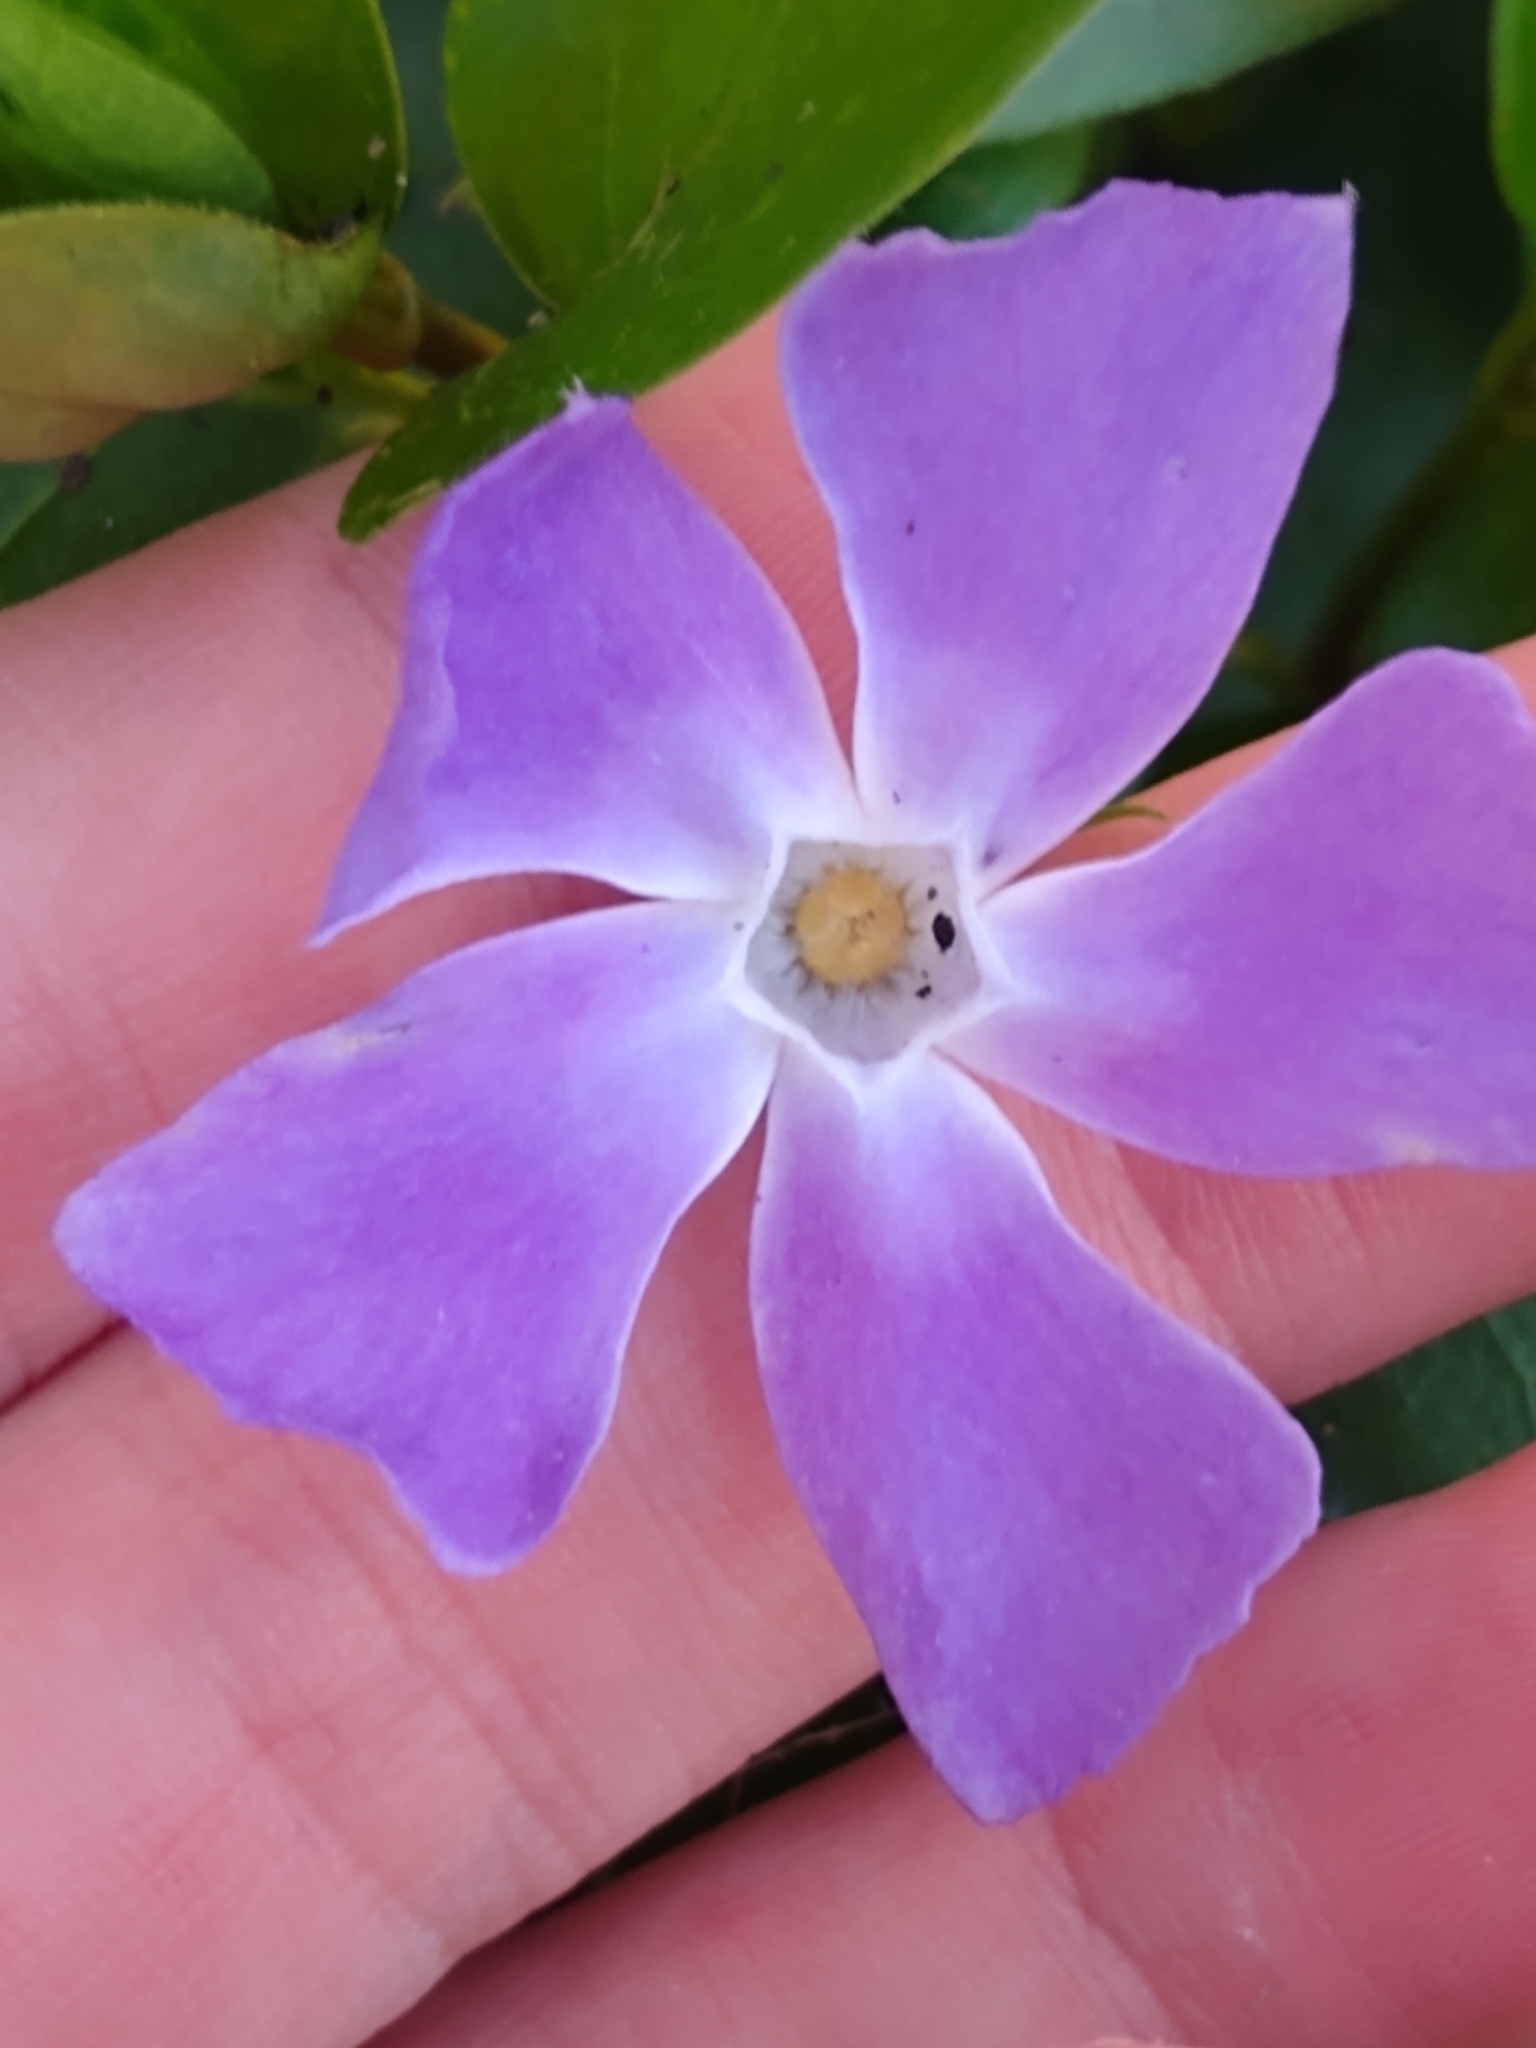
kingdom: Plantae
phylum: Tracheophyta
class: Magnoliopsida
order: Gentianales
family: Apocynaceae
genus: Vinca
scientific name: Vinca major
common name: Greater periwinkle
